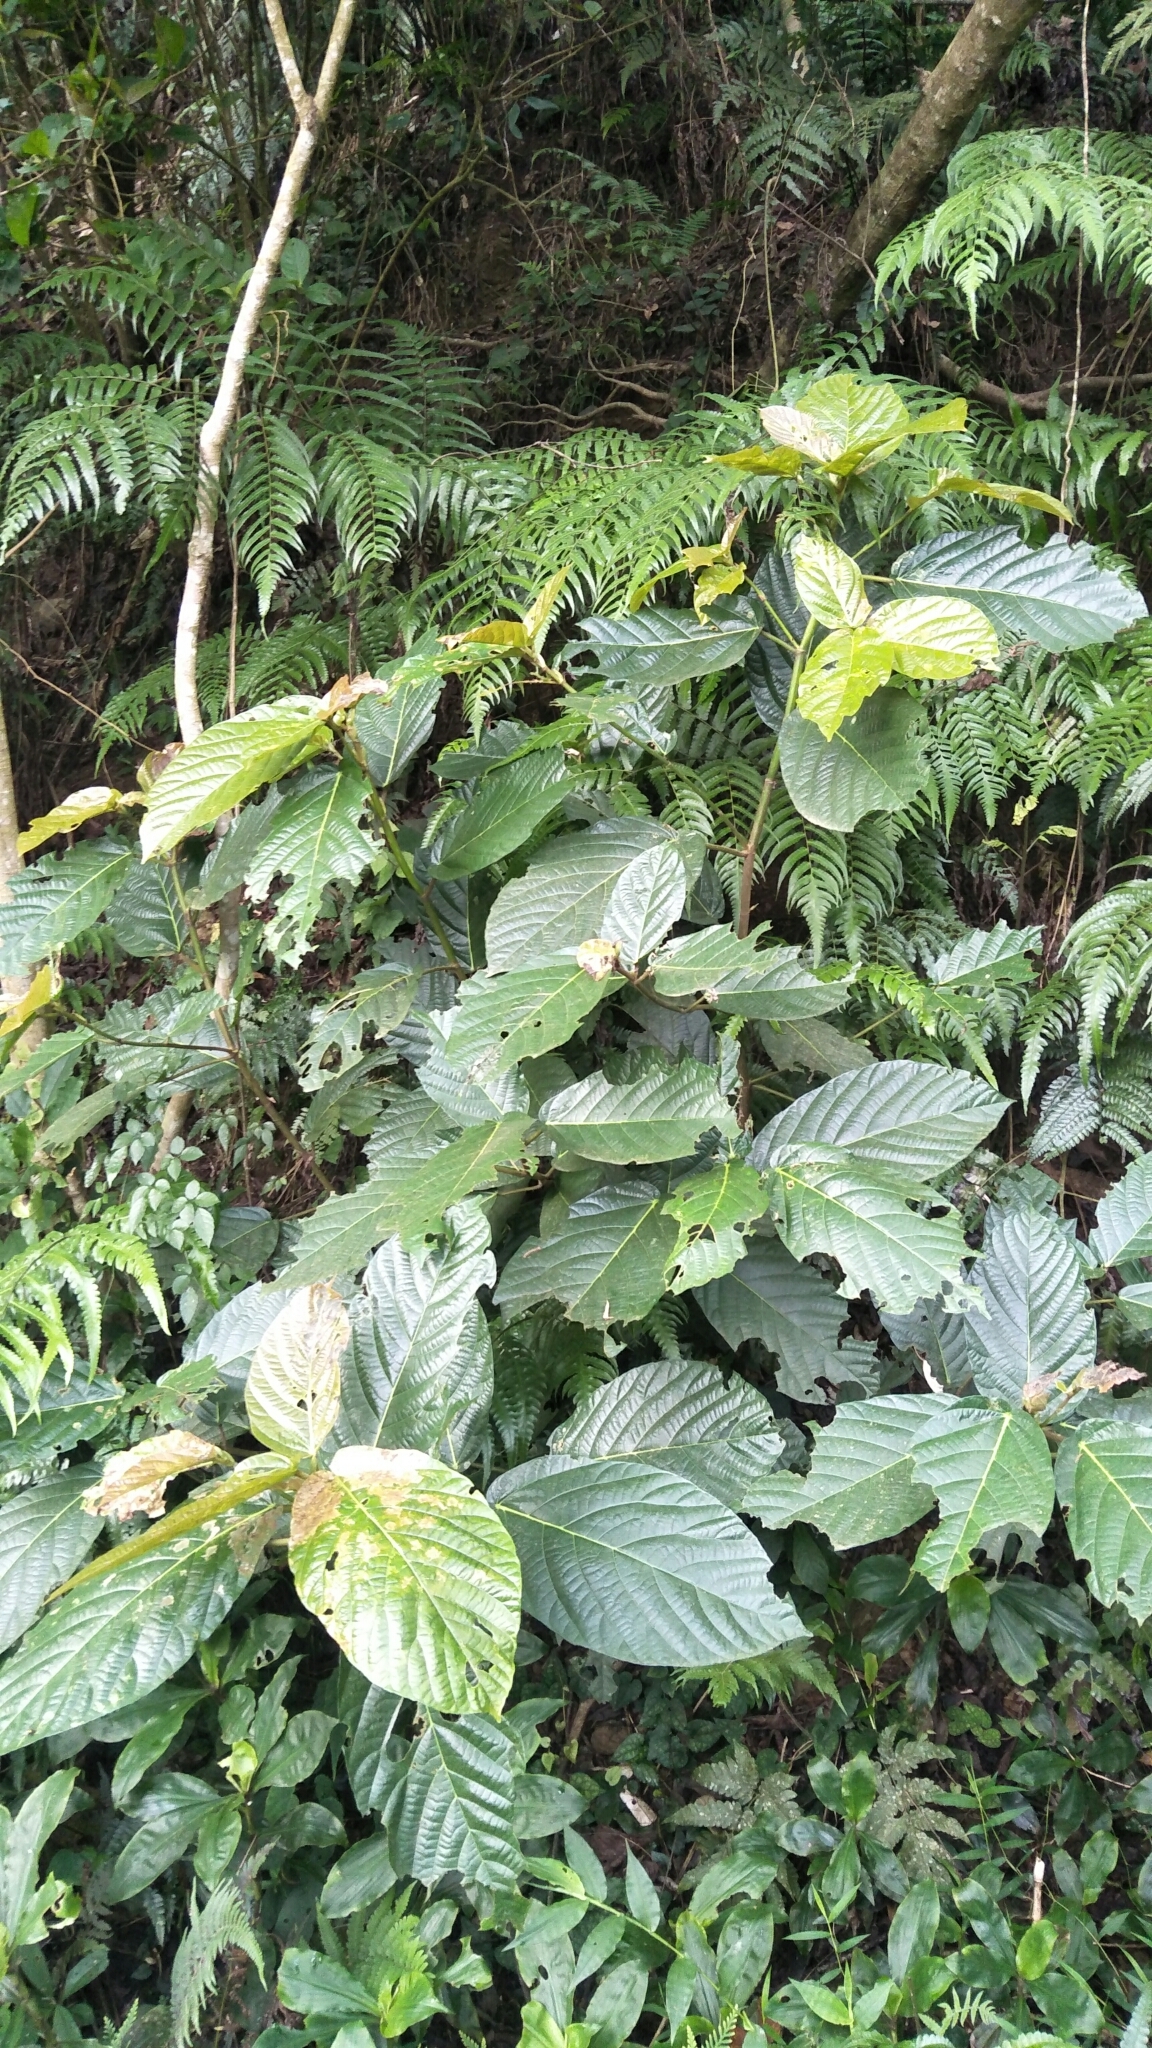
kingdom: Plantae
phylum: Tracheophyta
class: Magnoliopsida
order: Rosales
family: Moraceae
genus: Ficus
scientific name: Ficus benguetensis
